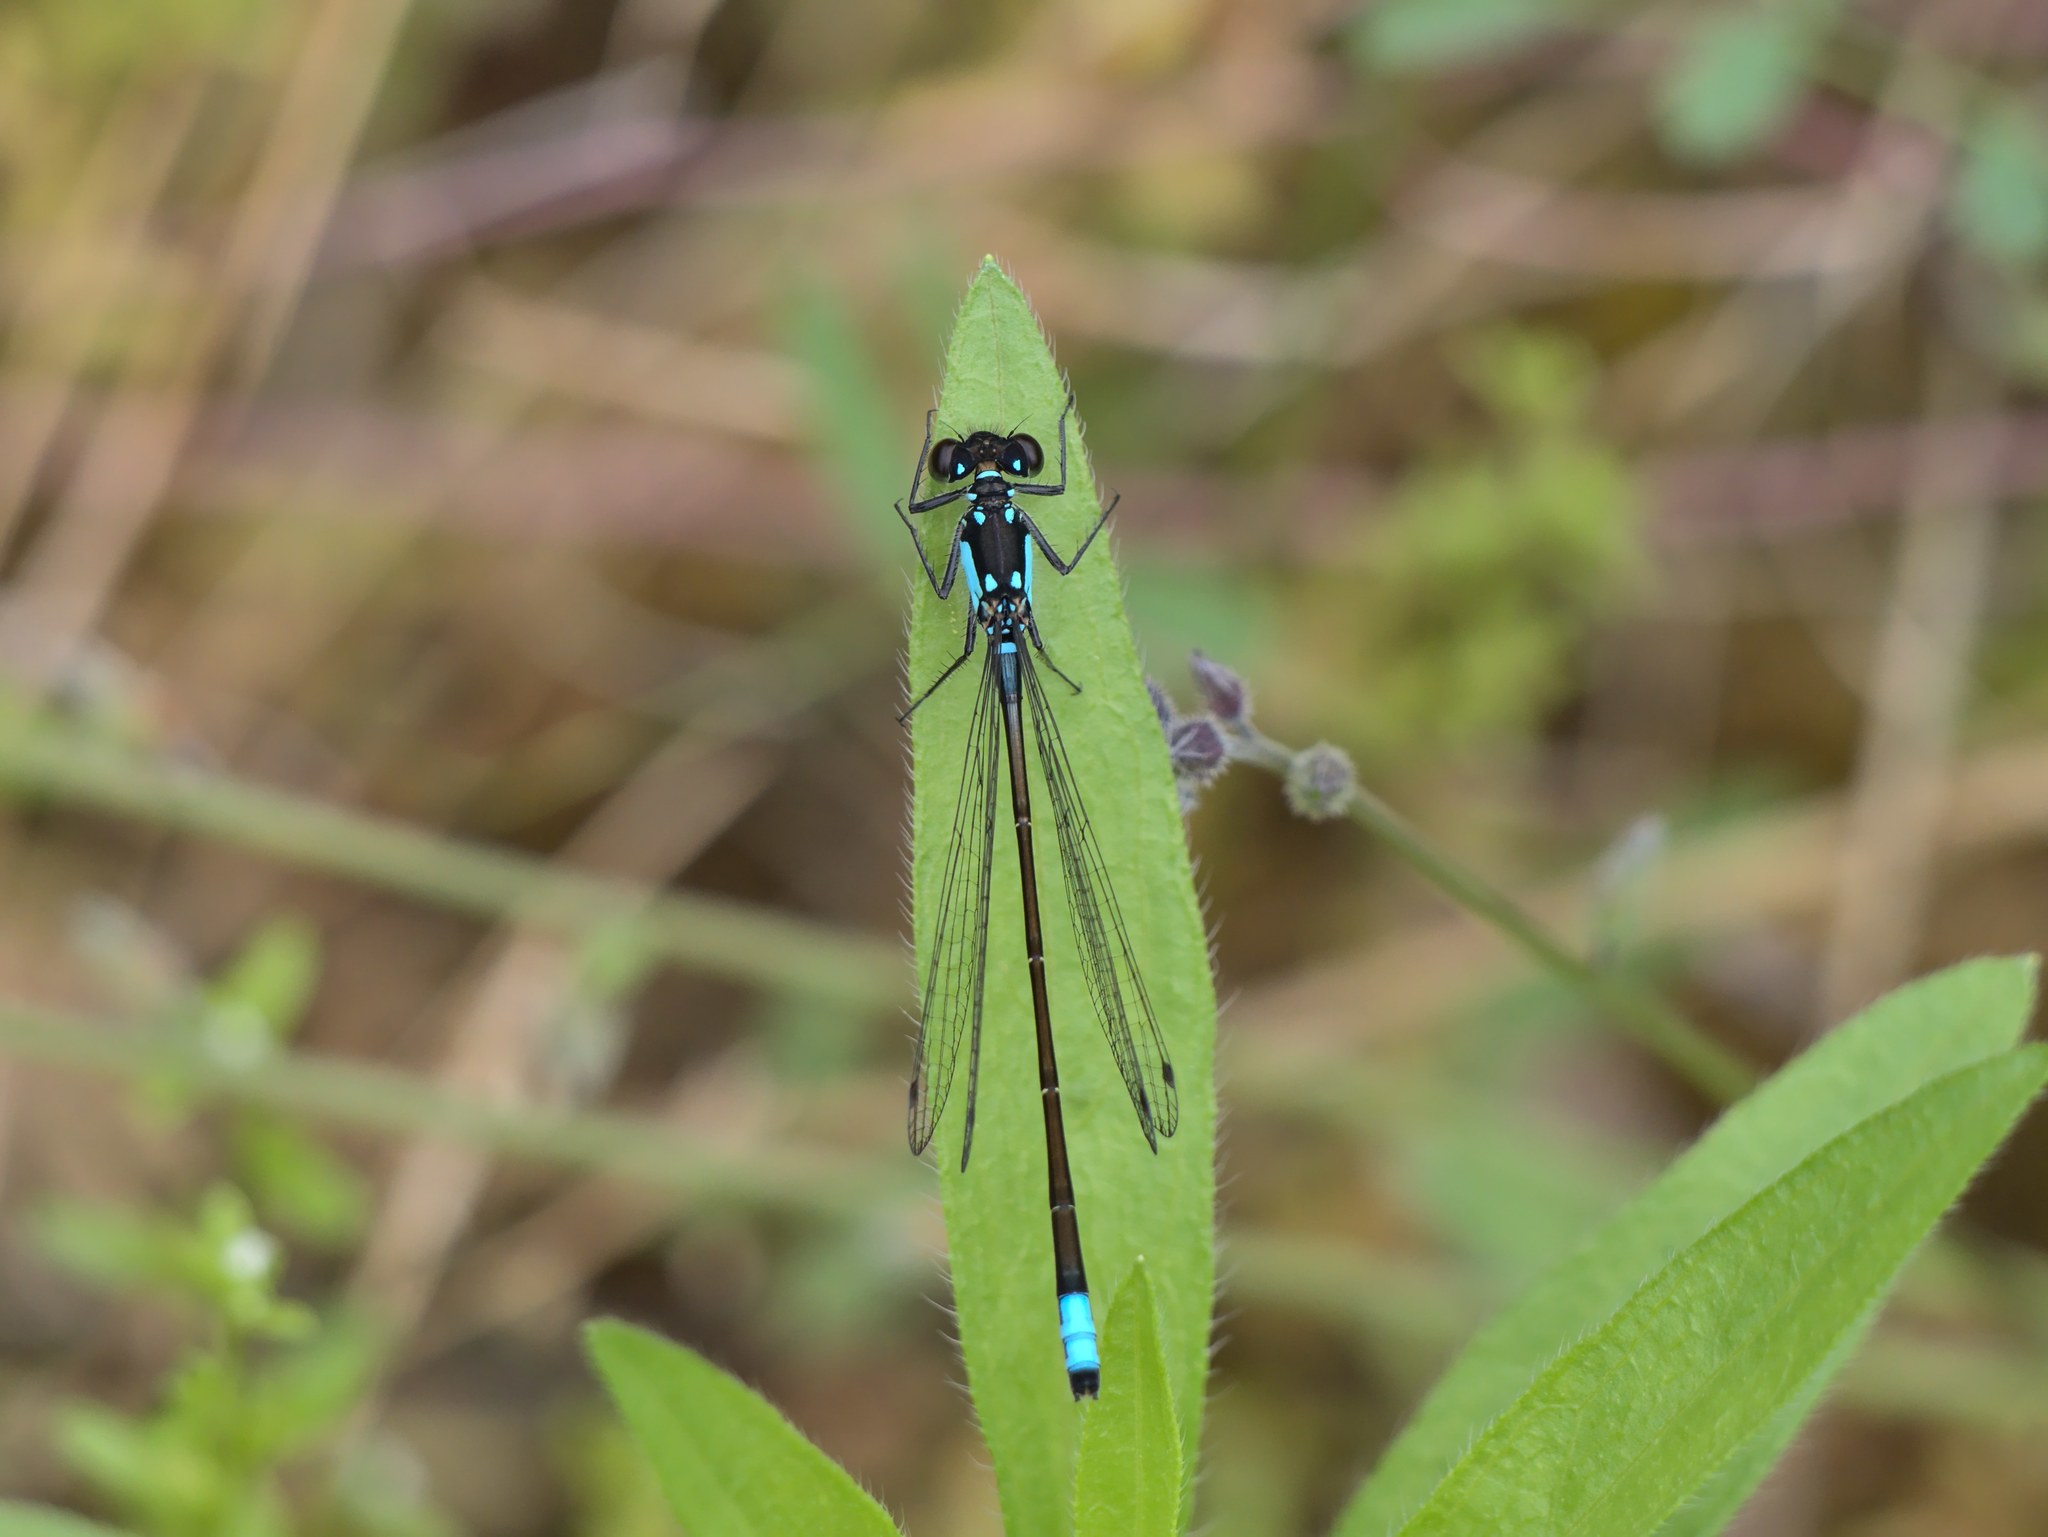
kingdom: Animalia
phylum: Arthropoda
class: Insecta
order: Odonata
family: Coenagrionidae
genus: Ischnura
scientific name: Ischnura cervula
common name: Pacific forktail
